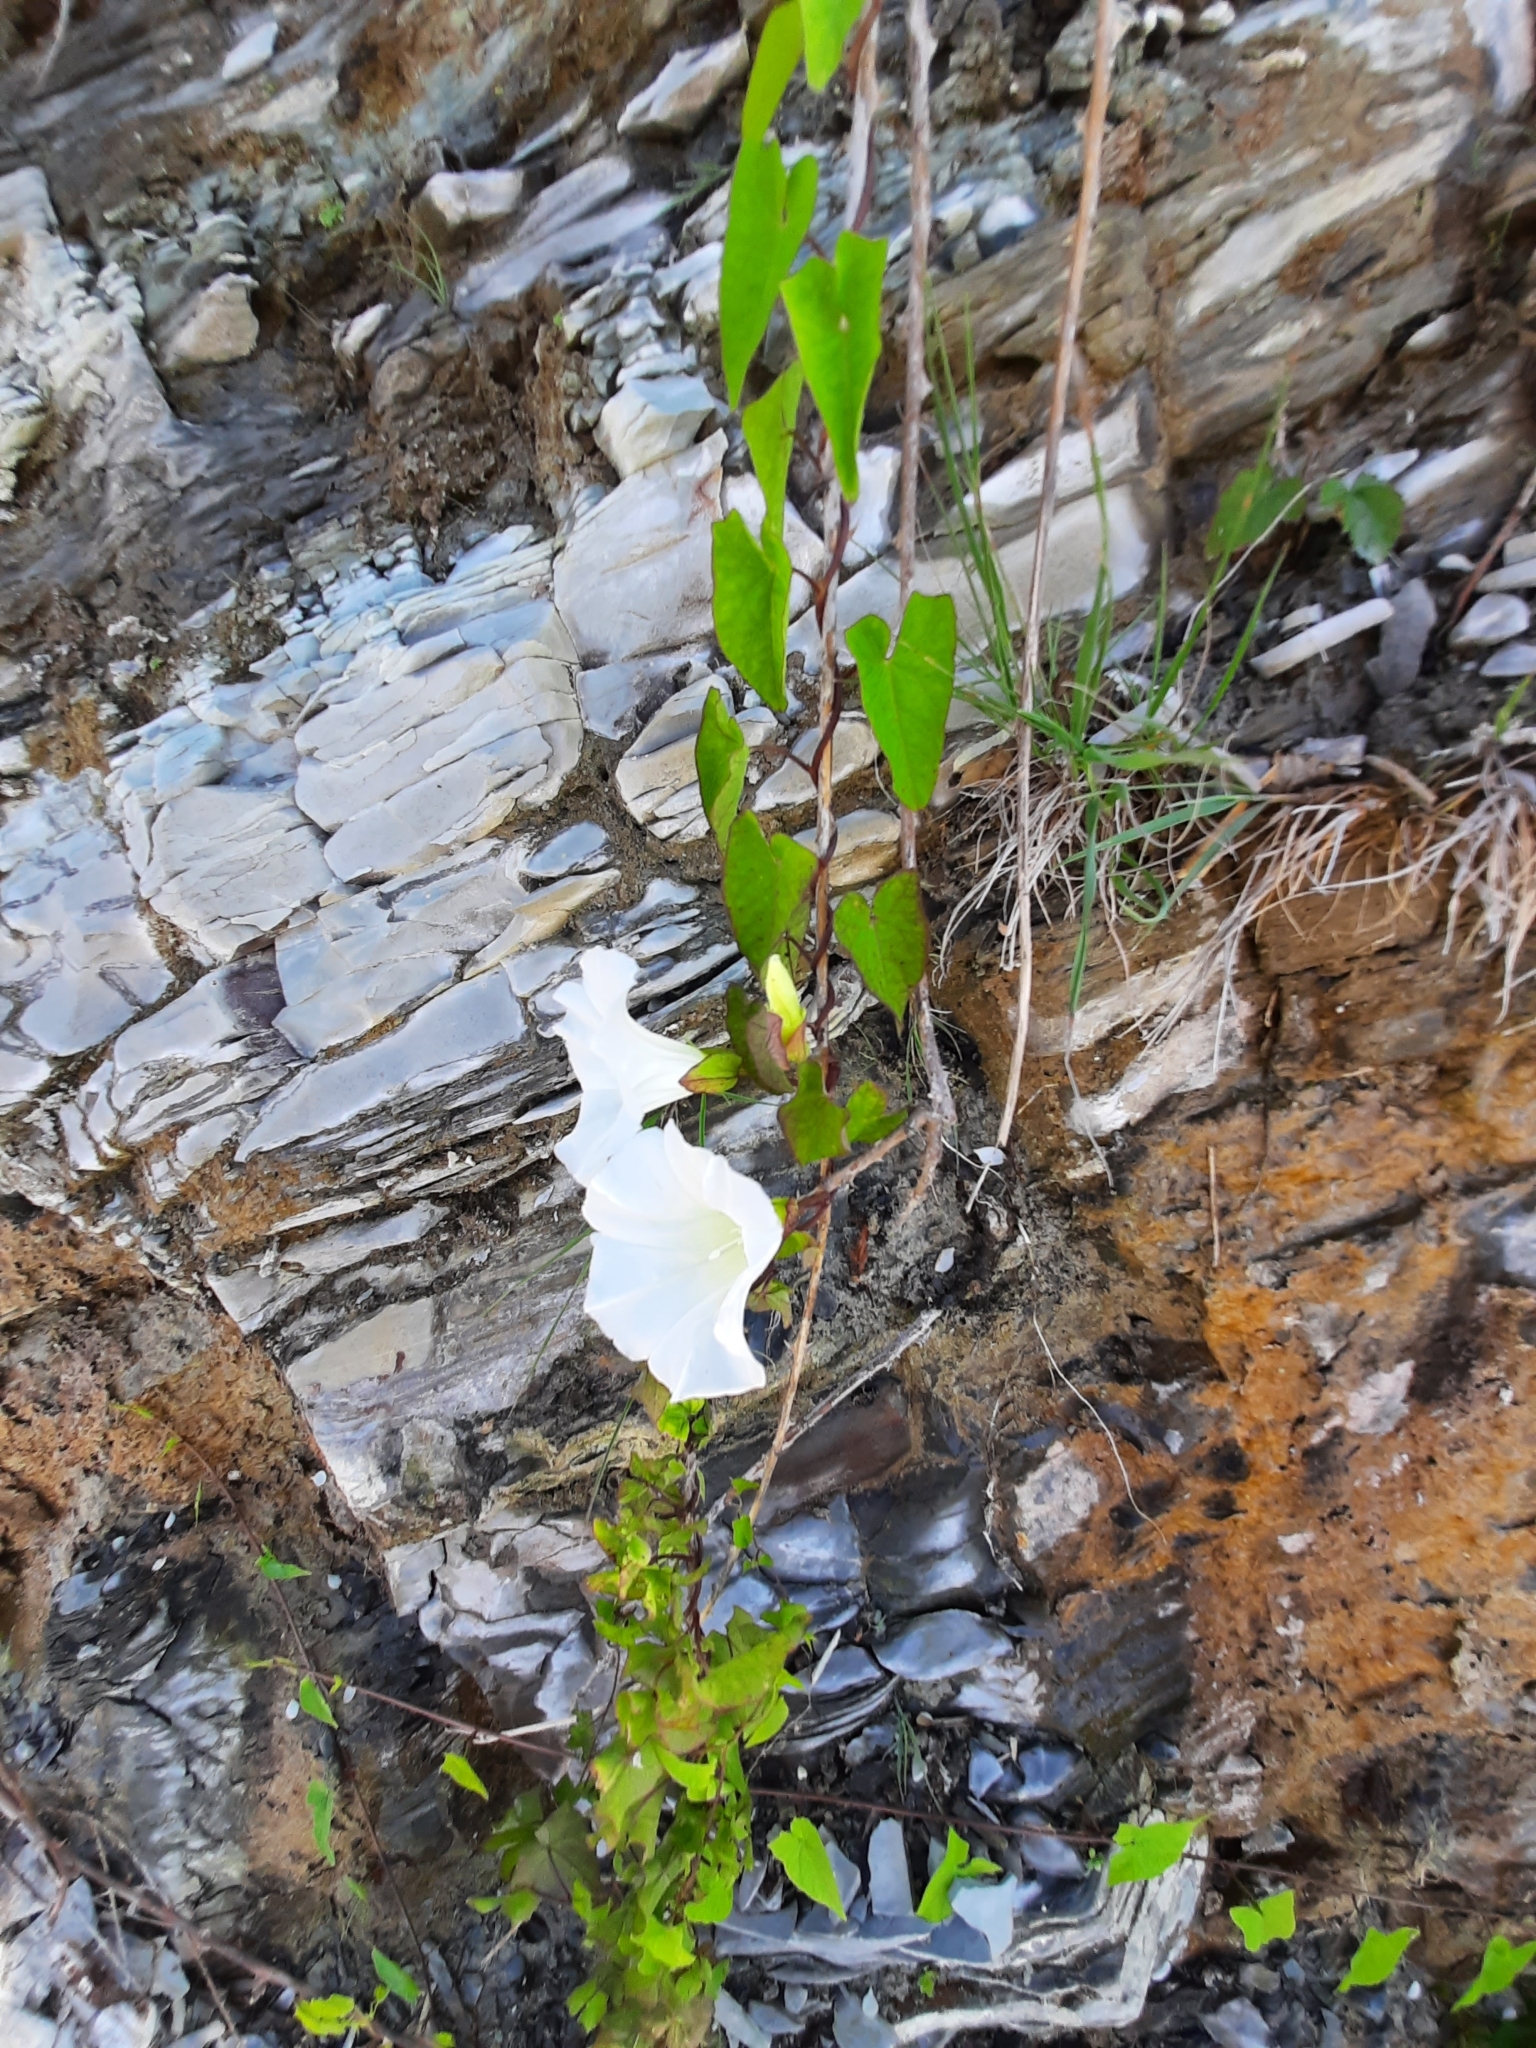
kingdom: Plantae
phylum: Tracheophyta
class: Magnoliopsida
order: Solanales
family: Convolvulaceae
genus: Calystegia
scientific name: Calystegia silvatica
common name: Large bindweed
